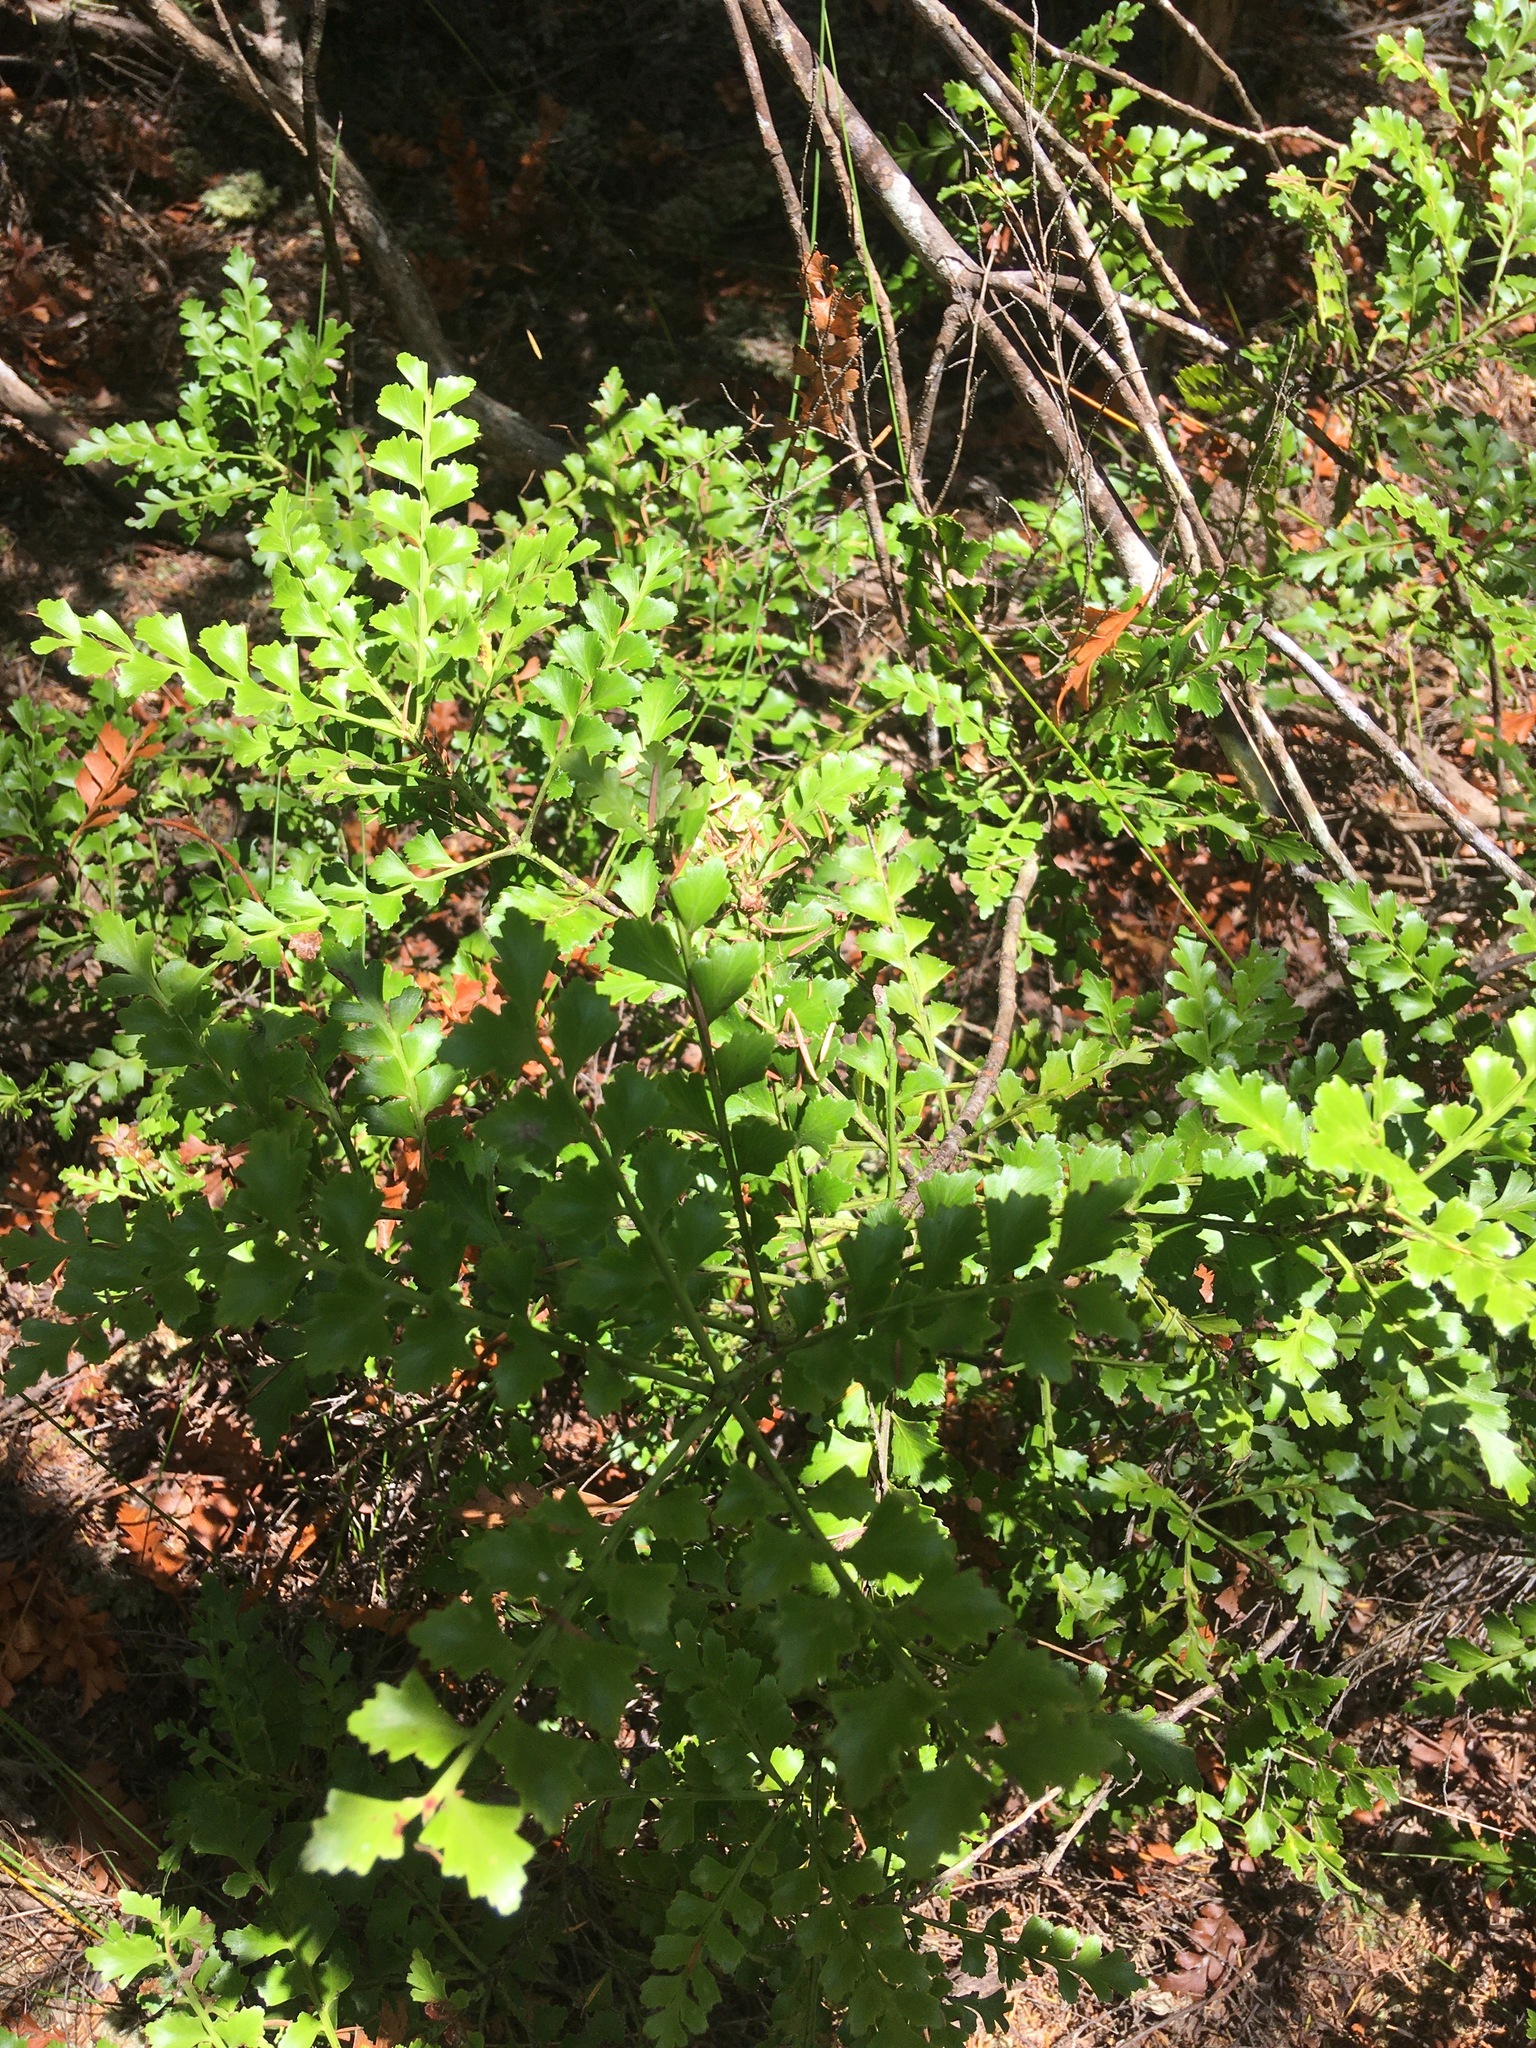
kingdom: Plantae
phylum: Tracheophyta
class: Pinopsida
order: Pinales
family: Phyllocladaceae
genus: Phyllocladus
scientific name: Phyllocladus trichomanoides
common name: Celery pine
